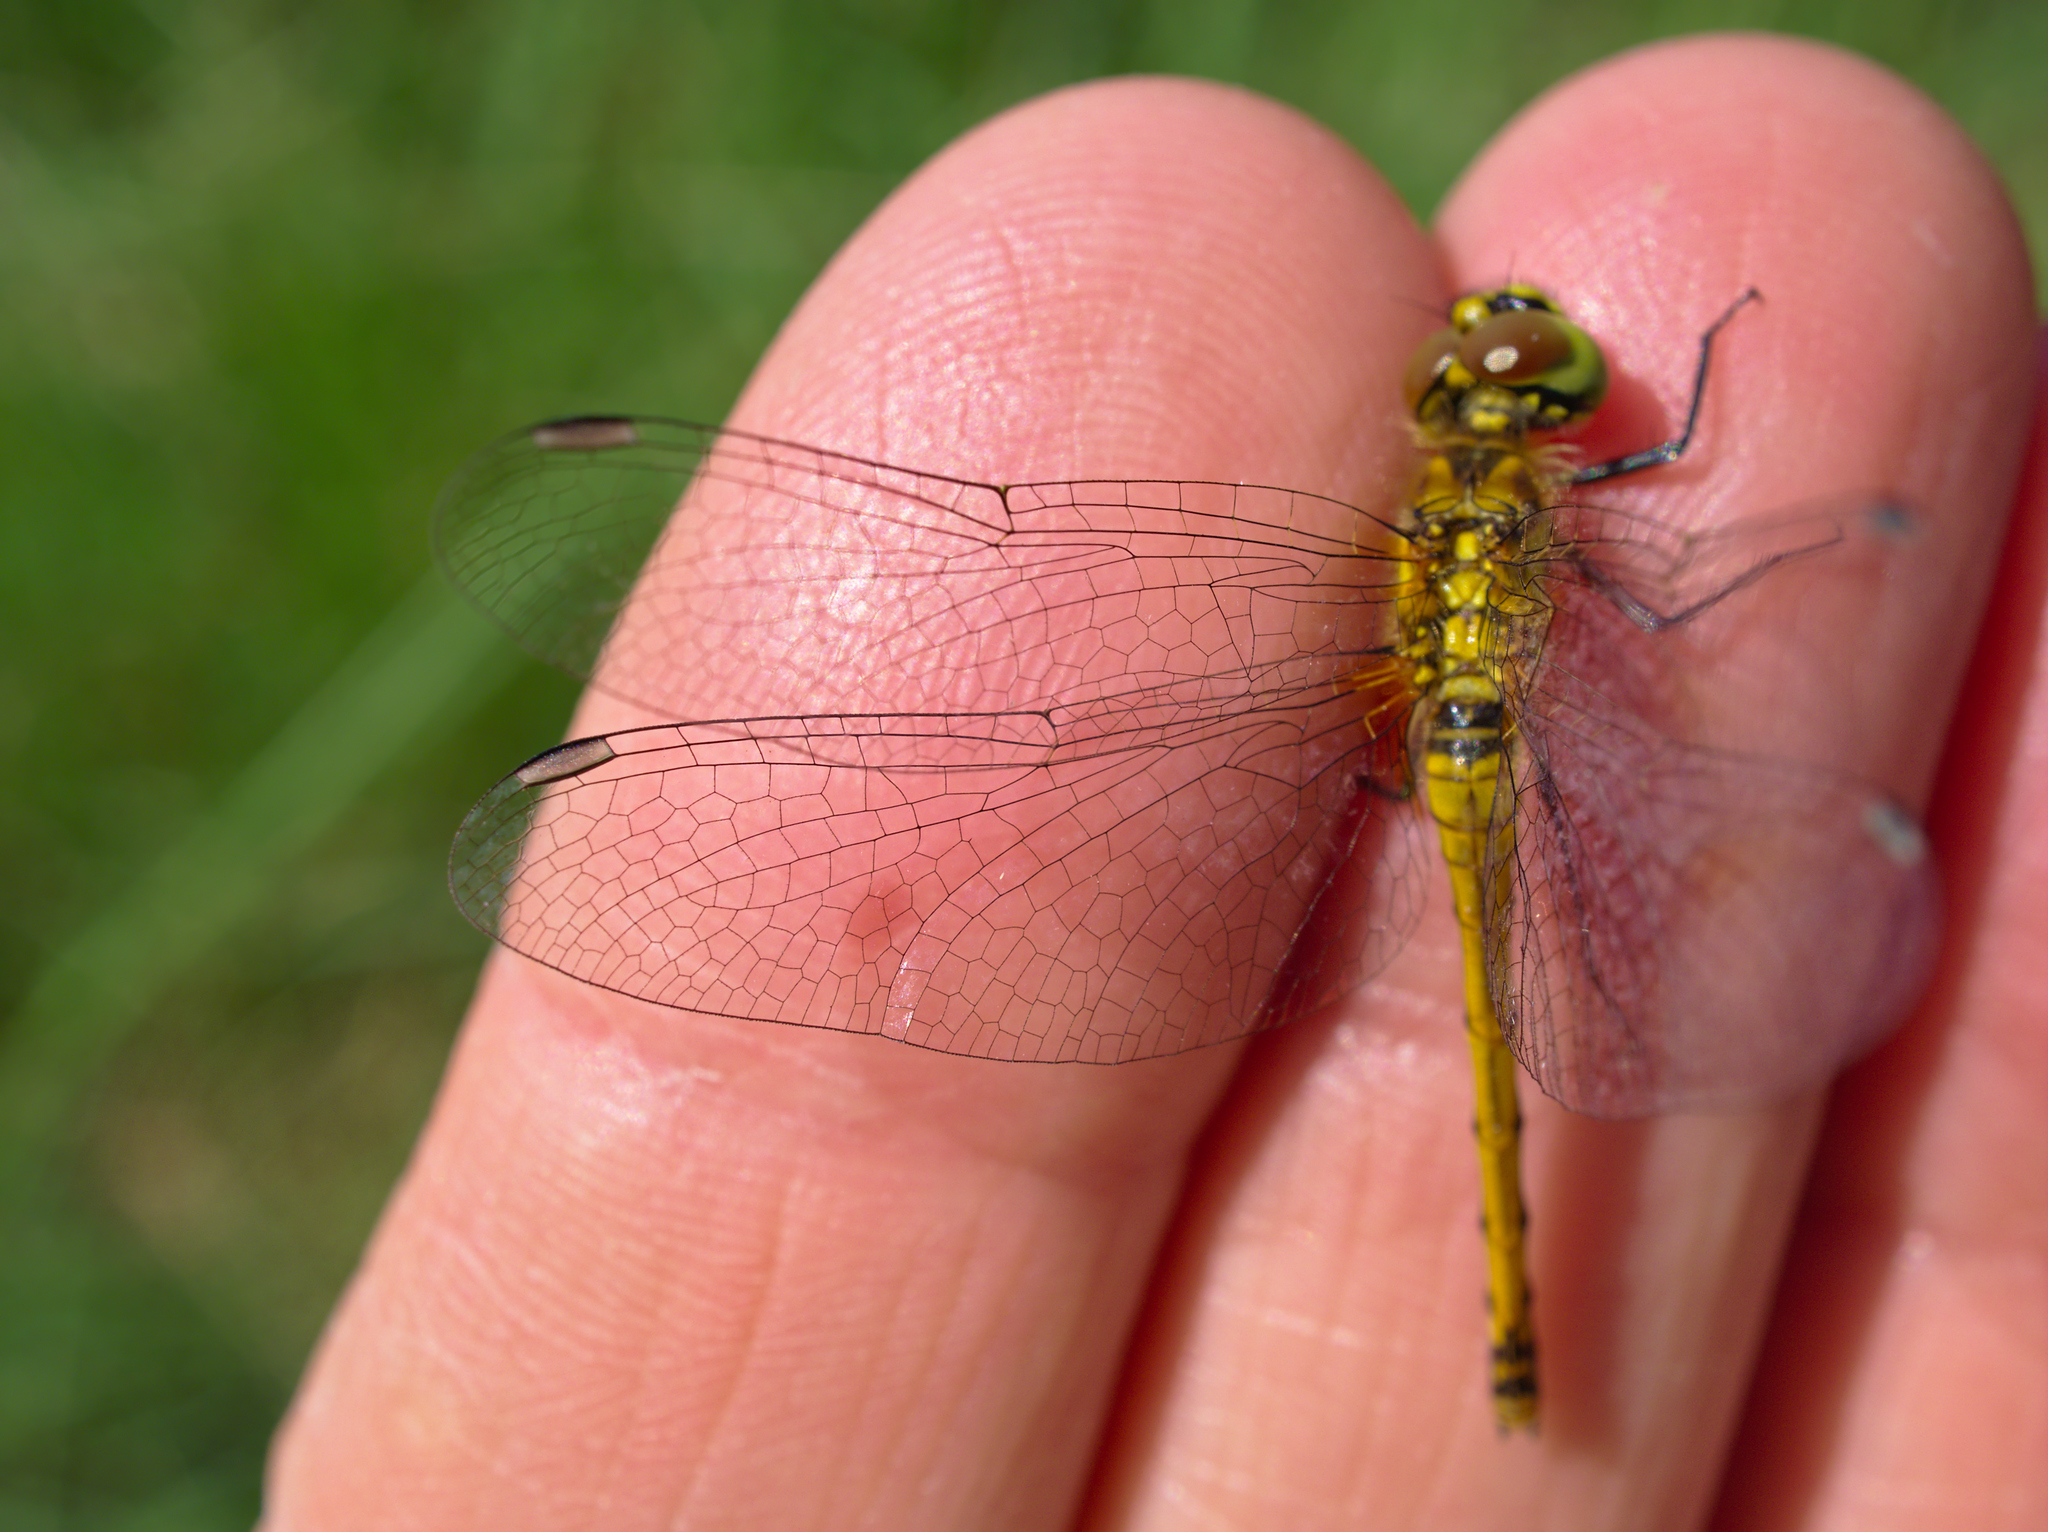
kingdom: Animalia
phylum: Arthropoda
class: Insecta
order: Odonata
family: Libellulidae
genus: Sympetrum
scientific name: Sympetrum danae
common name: Black darter
